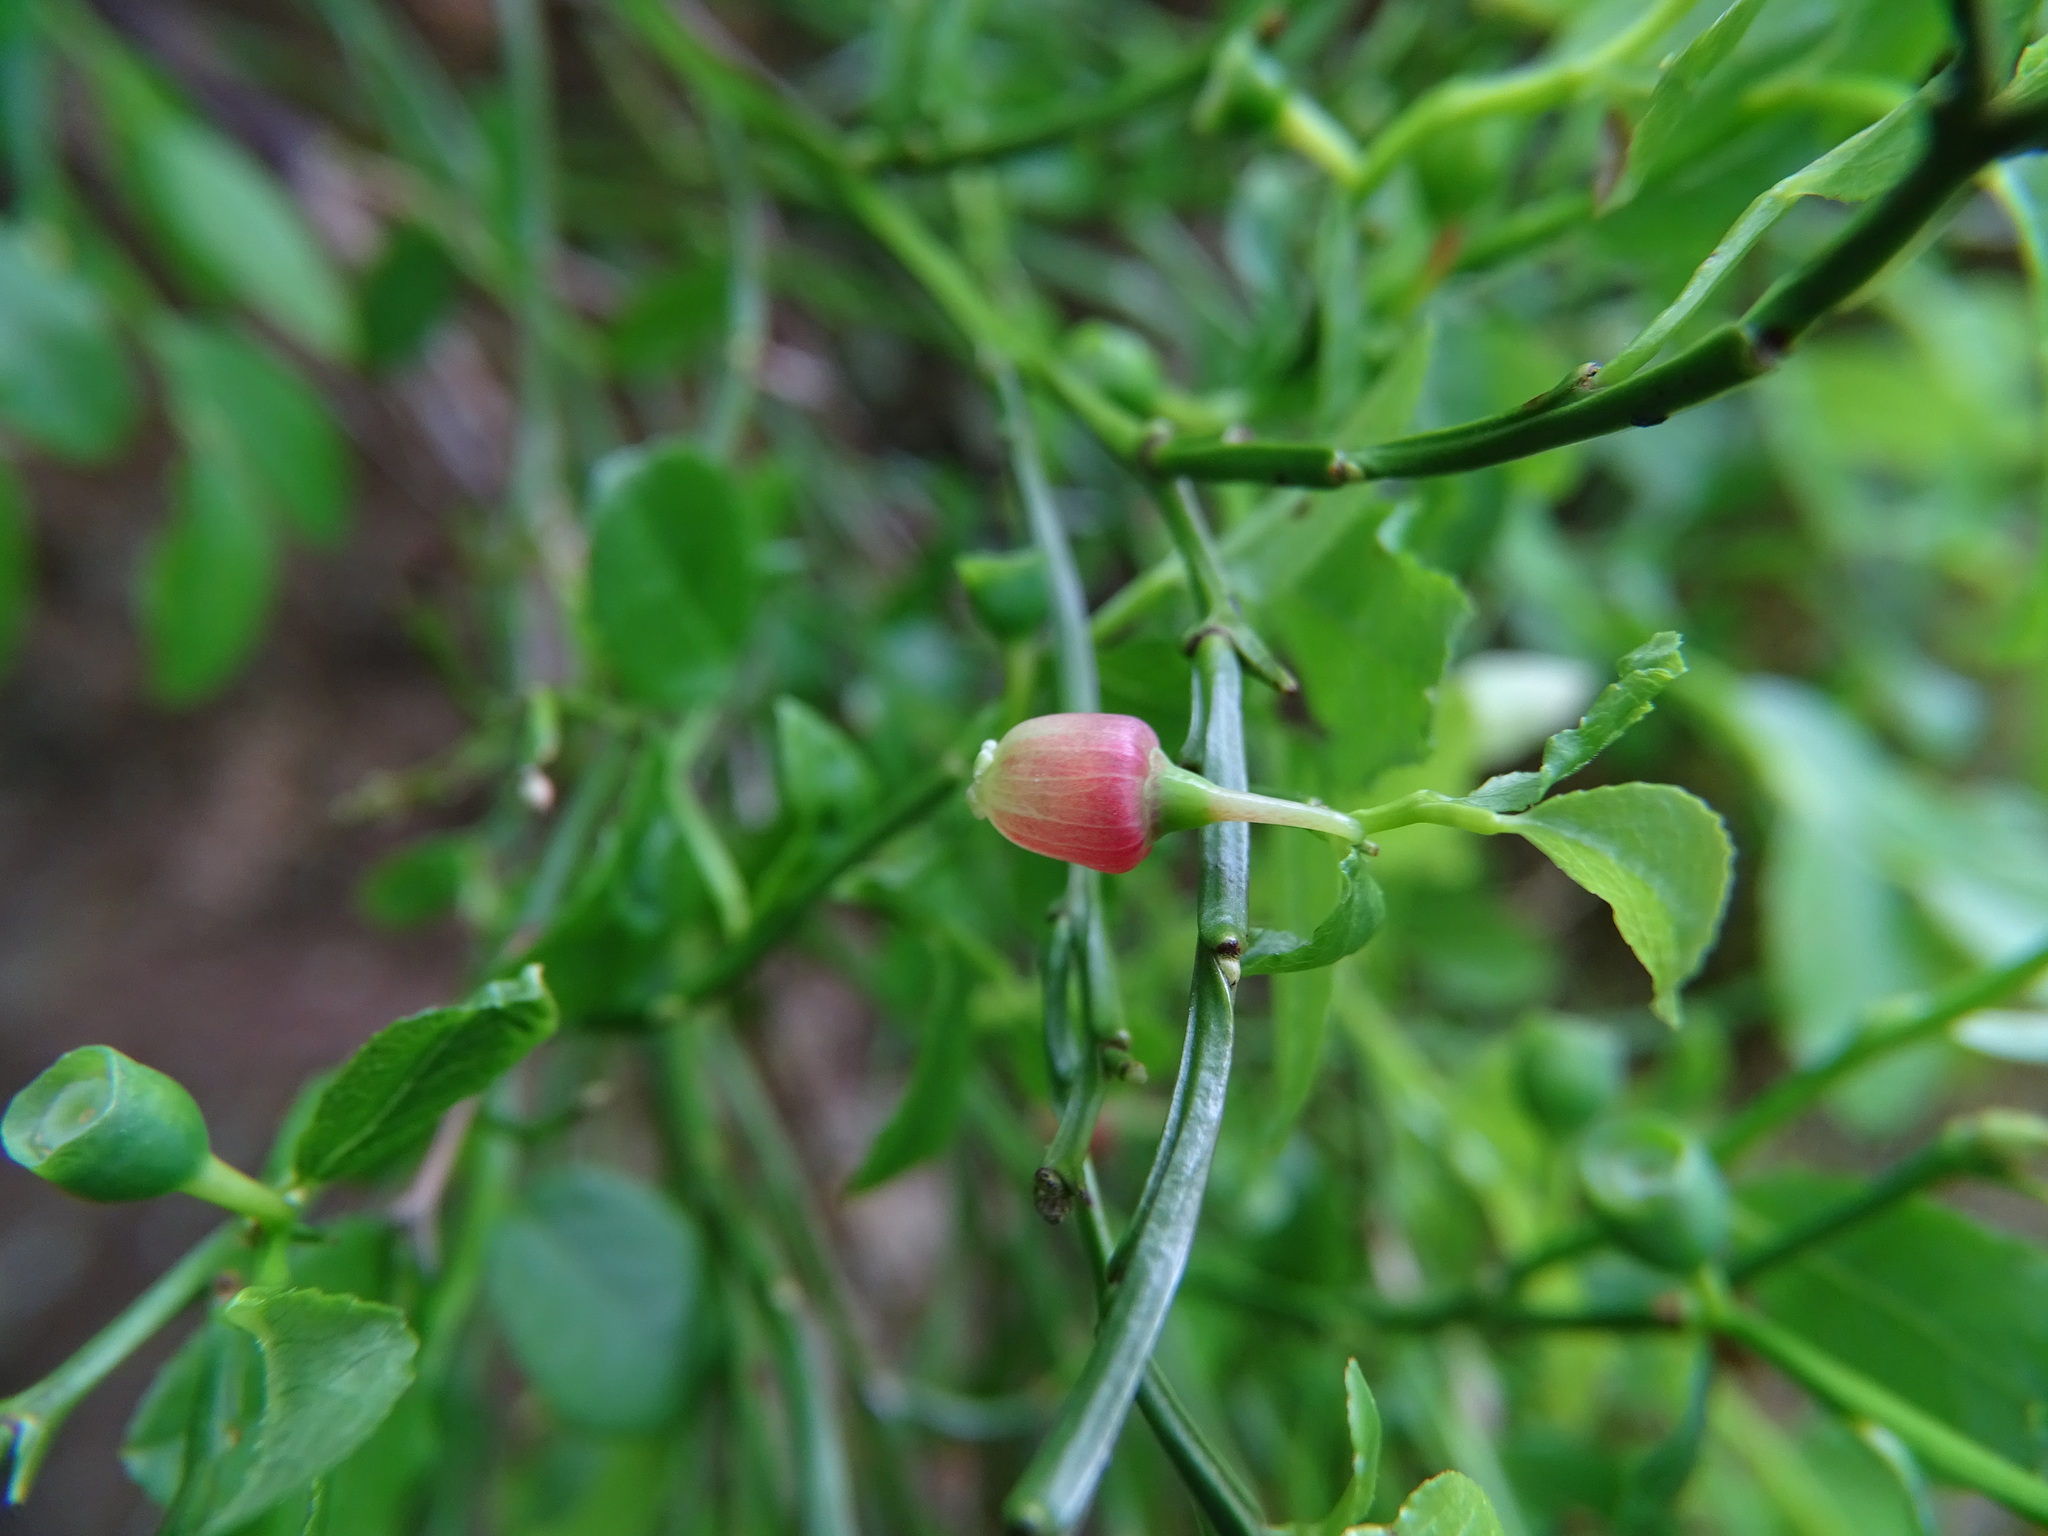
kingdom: Plantae
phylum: Tracheophyta
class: Magnoliopsida
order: Ericales
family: Ericaceae
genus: Vaccinium
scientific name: Vaccinium myrtillus
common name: Bilberry
